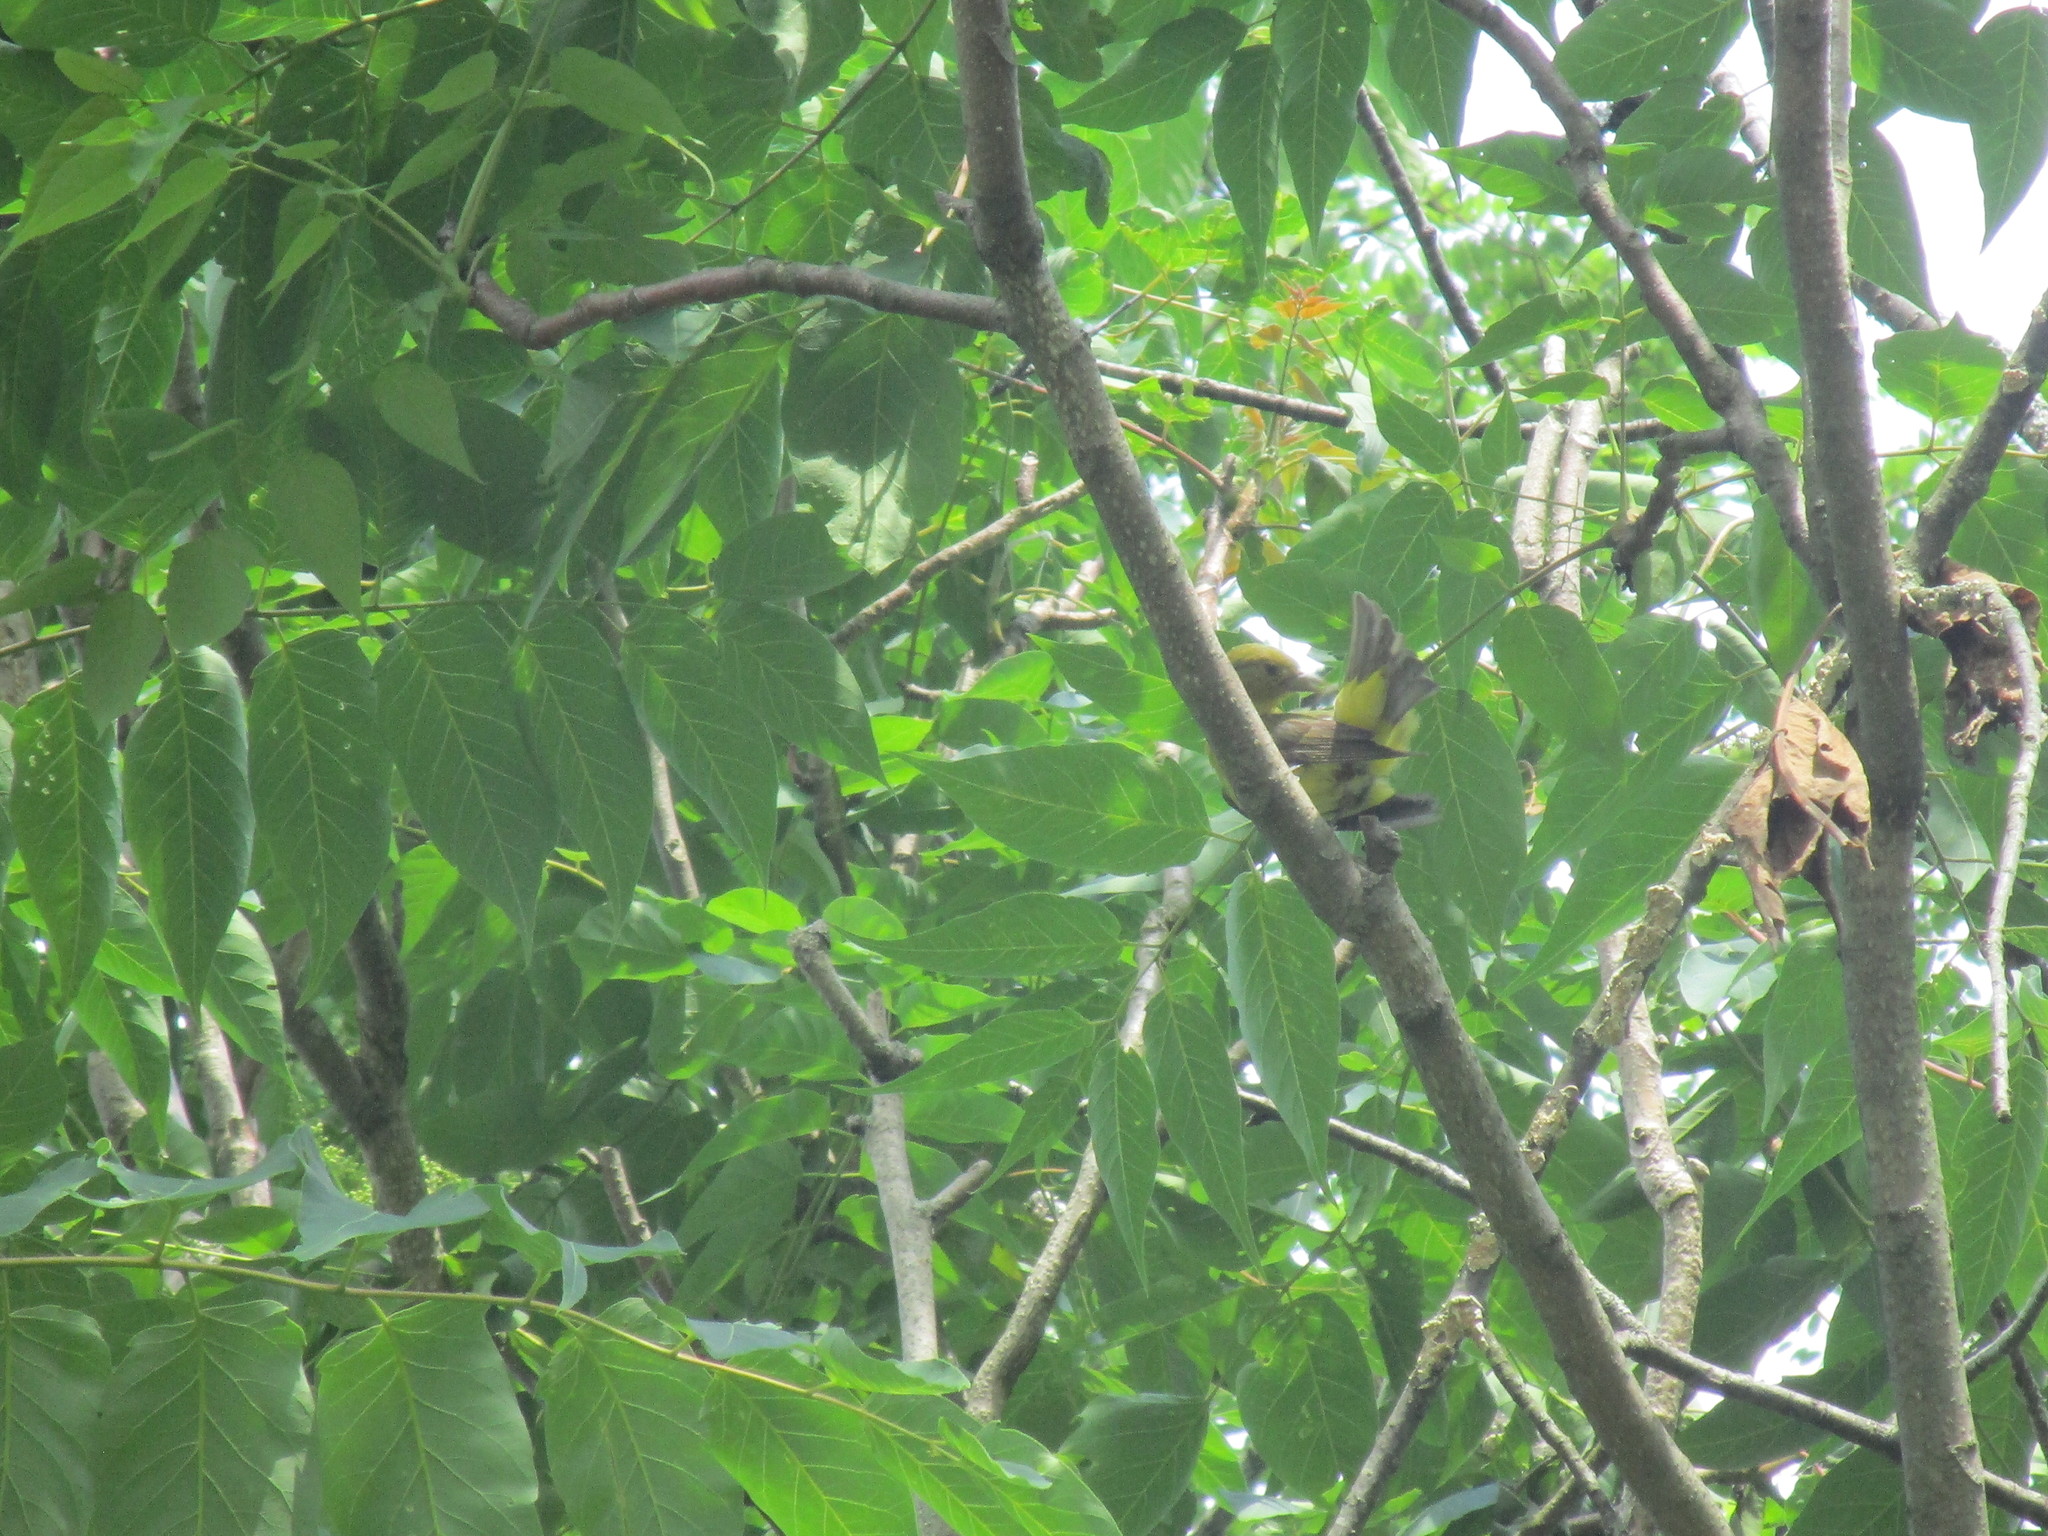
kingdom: Animalia
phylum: Chordata
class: Aves
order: Passeriformes
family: Cardinalidae
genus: Piranga
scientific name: Piranga olivacea
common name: Scarlet tanager
